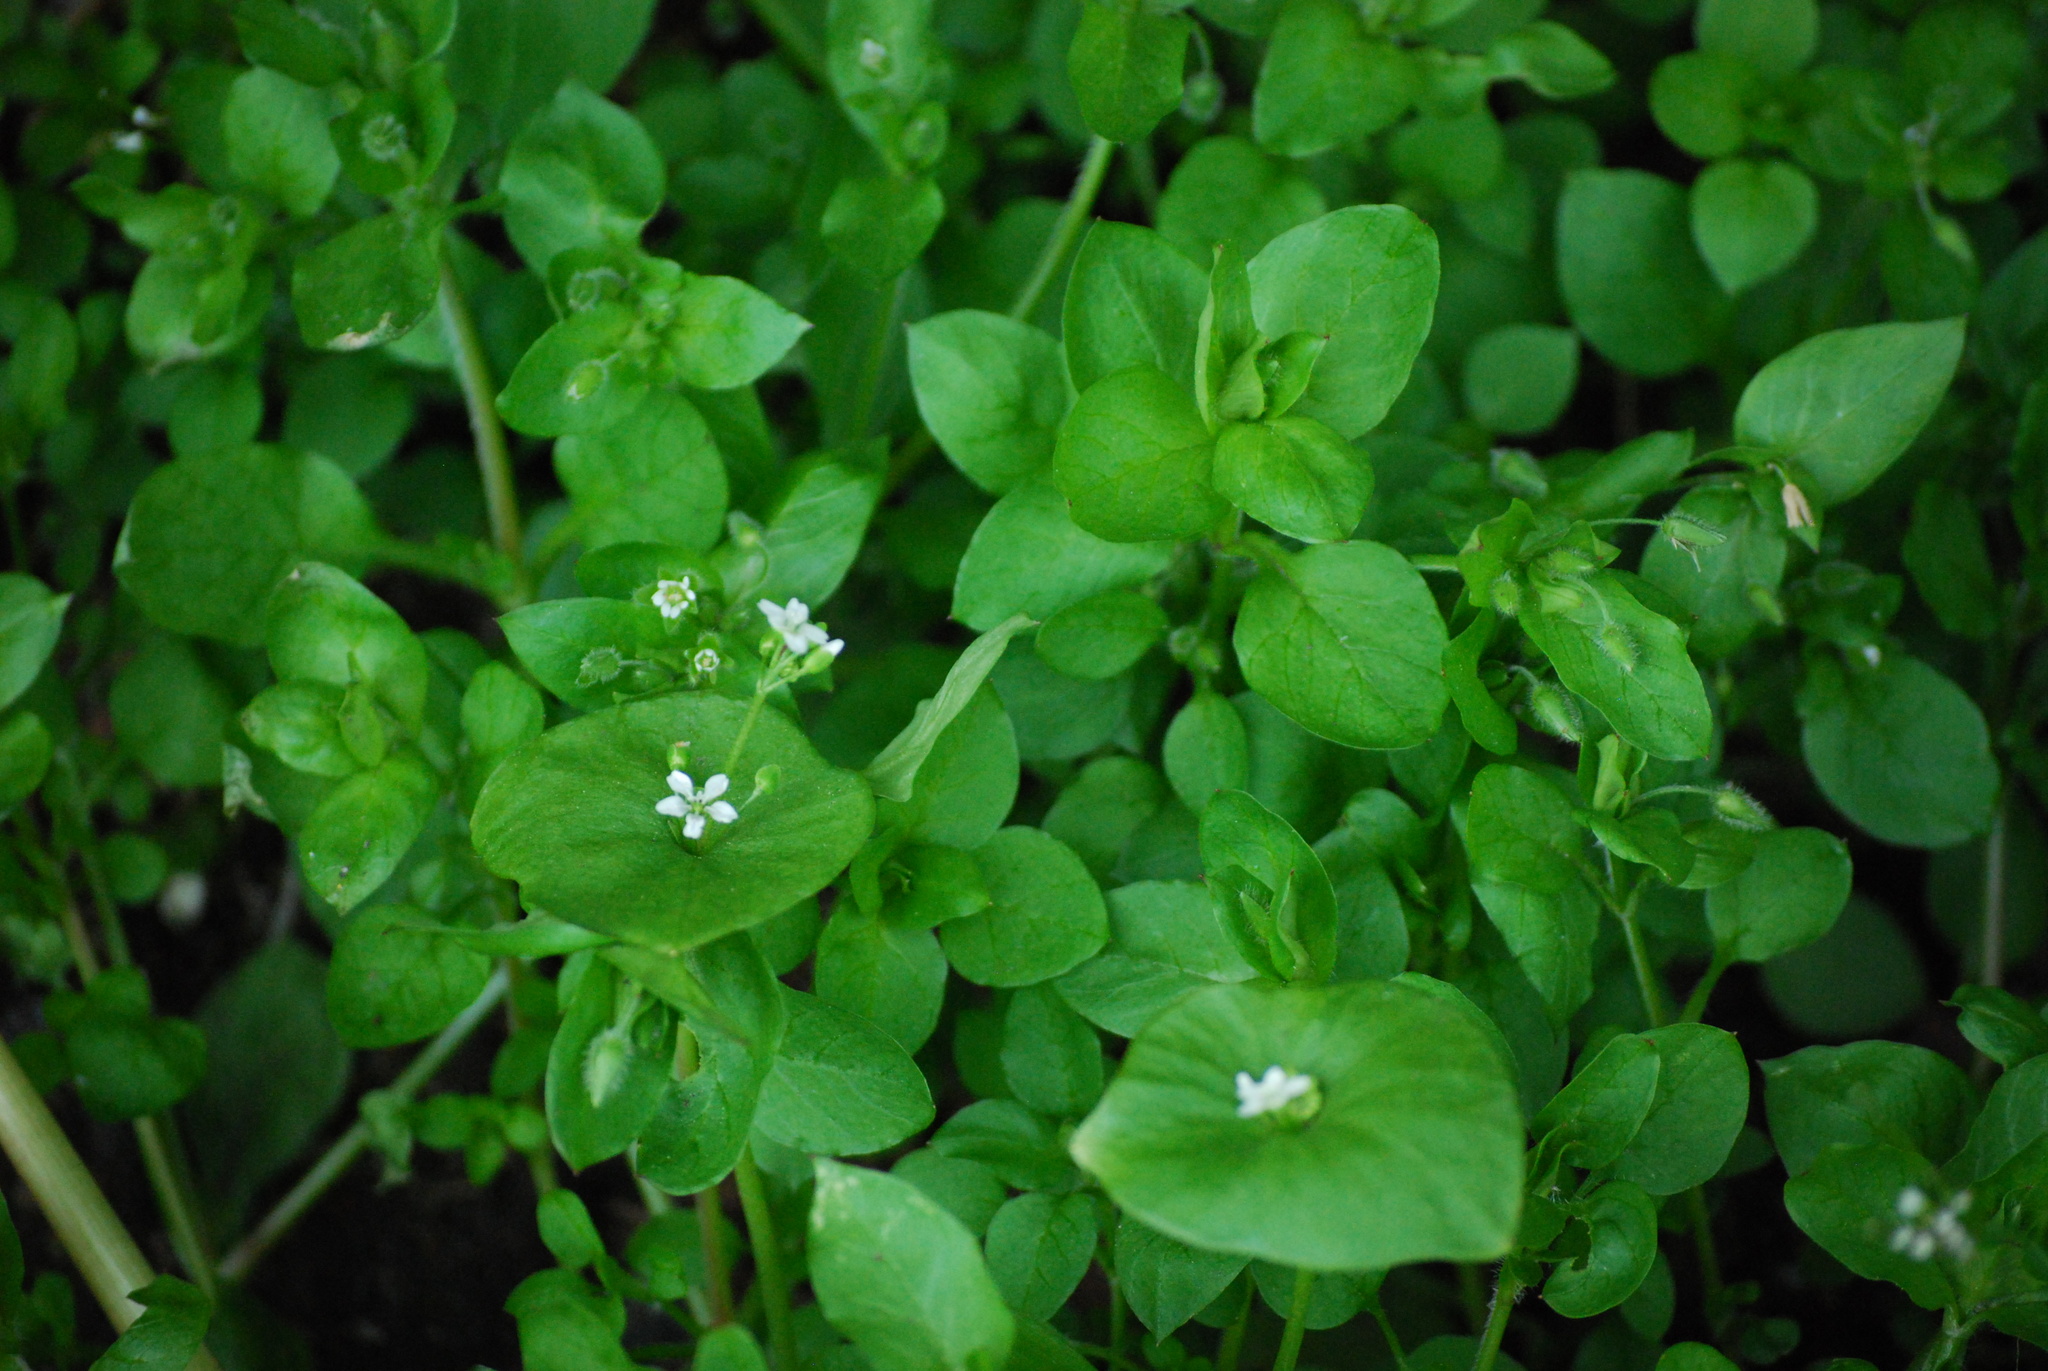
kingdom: Plantae
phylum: Tracheophyta
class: Magnoliopsida
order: Caryophyllales
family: Montiaceae
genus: Claytonia
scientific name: Claytonia perfoliata
